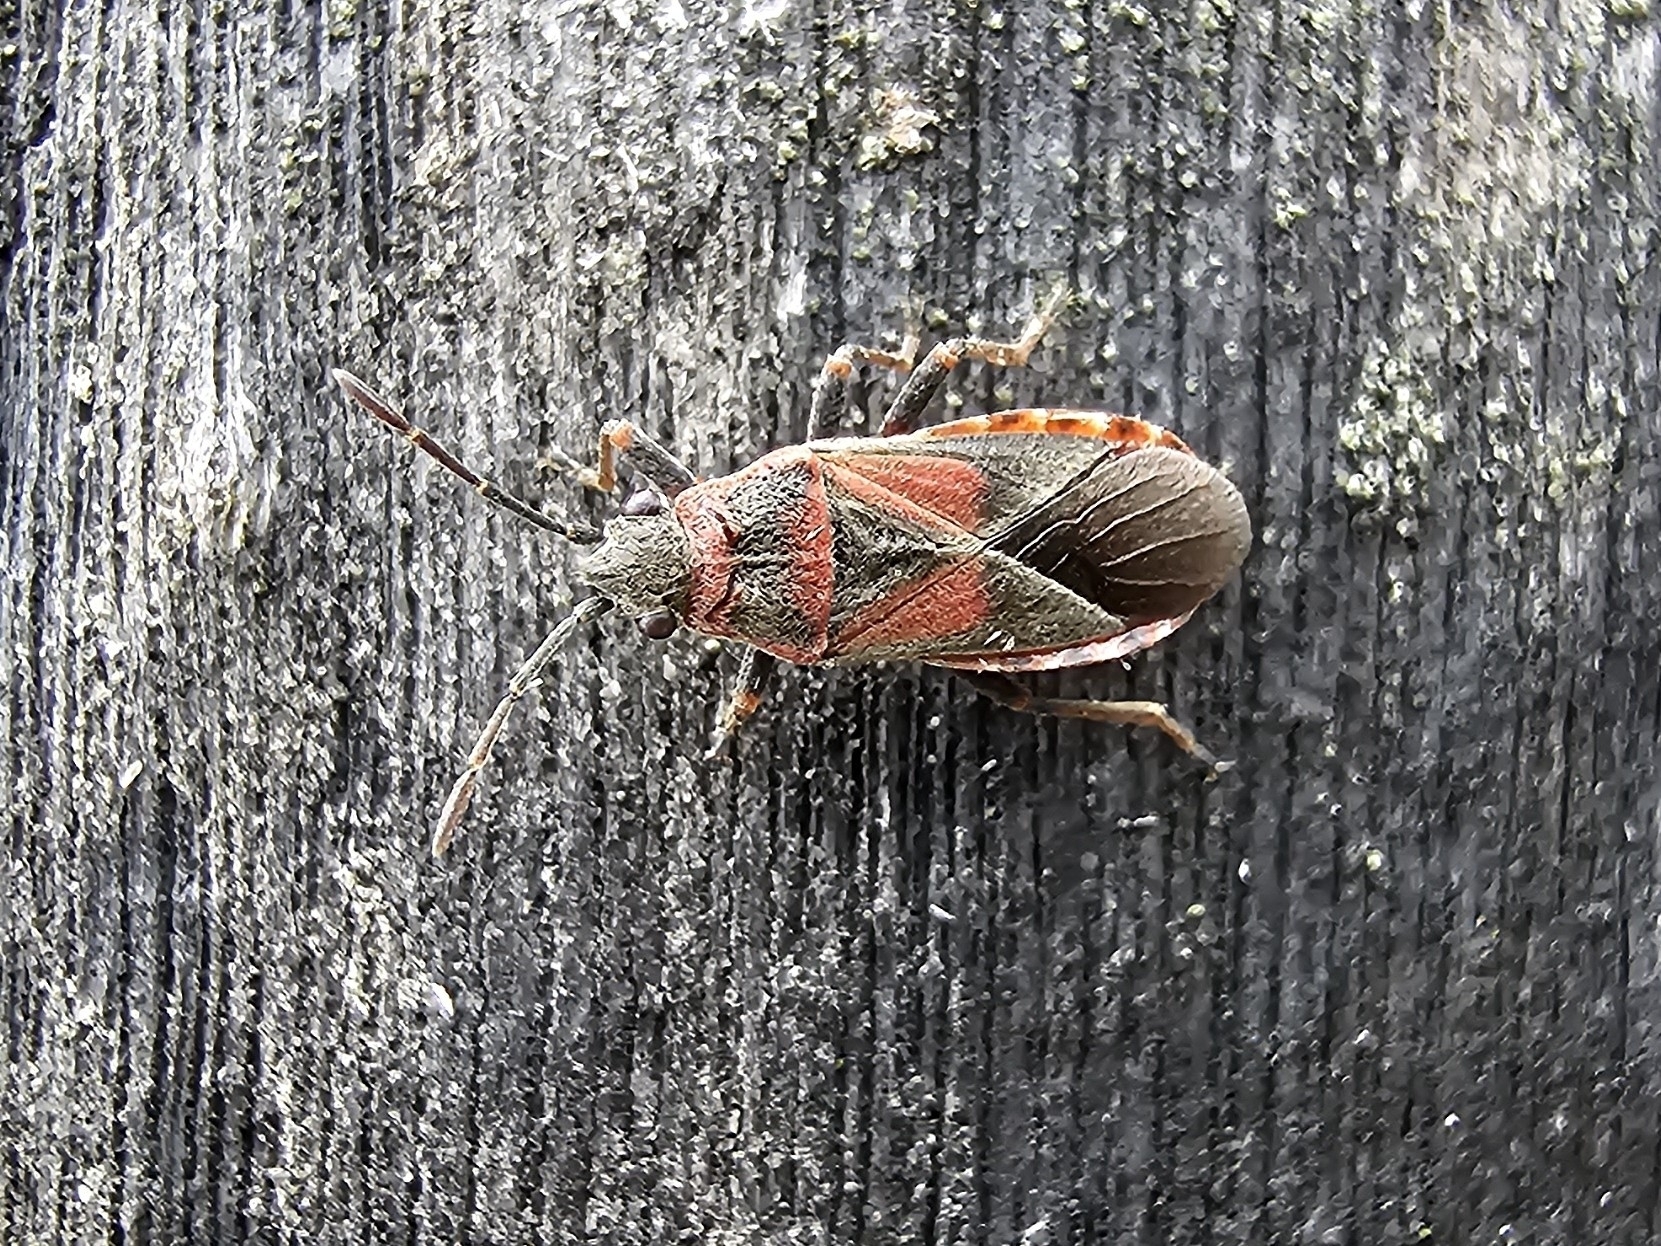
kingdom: Animalia
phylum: Arthropoda
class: Insecta
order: Hemiptera
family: Lygaeidae
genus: Arocatus
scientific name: Arocatus melanocephalus
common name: Lygaeid bug
